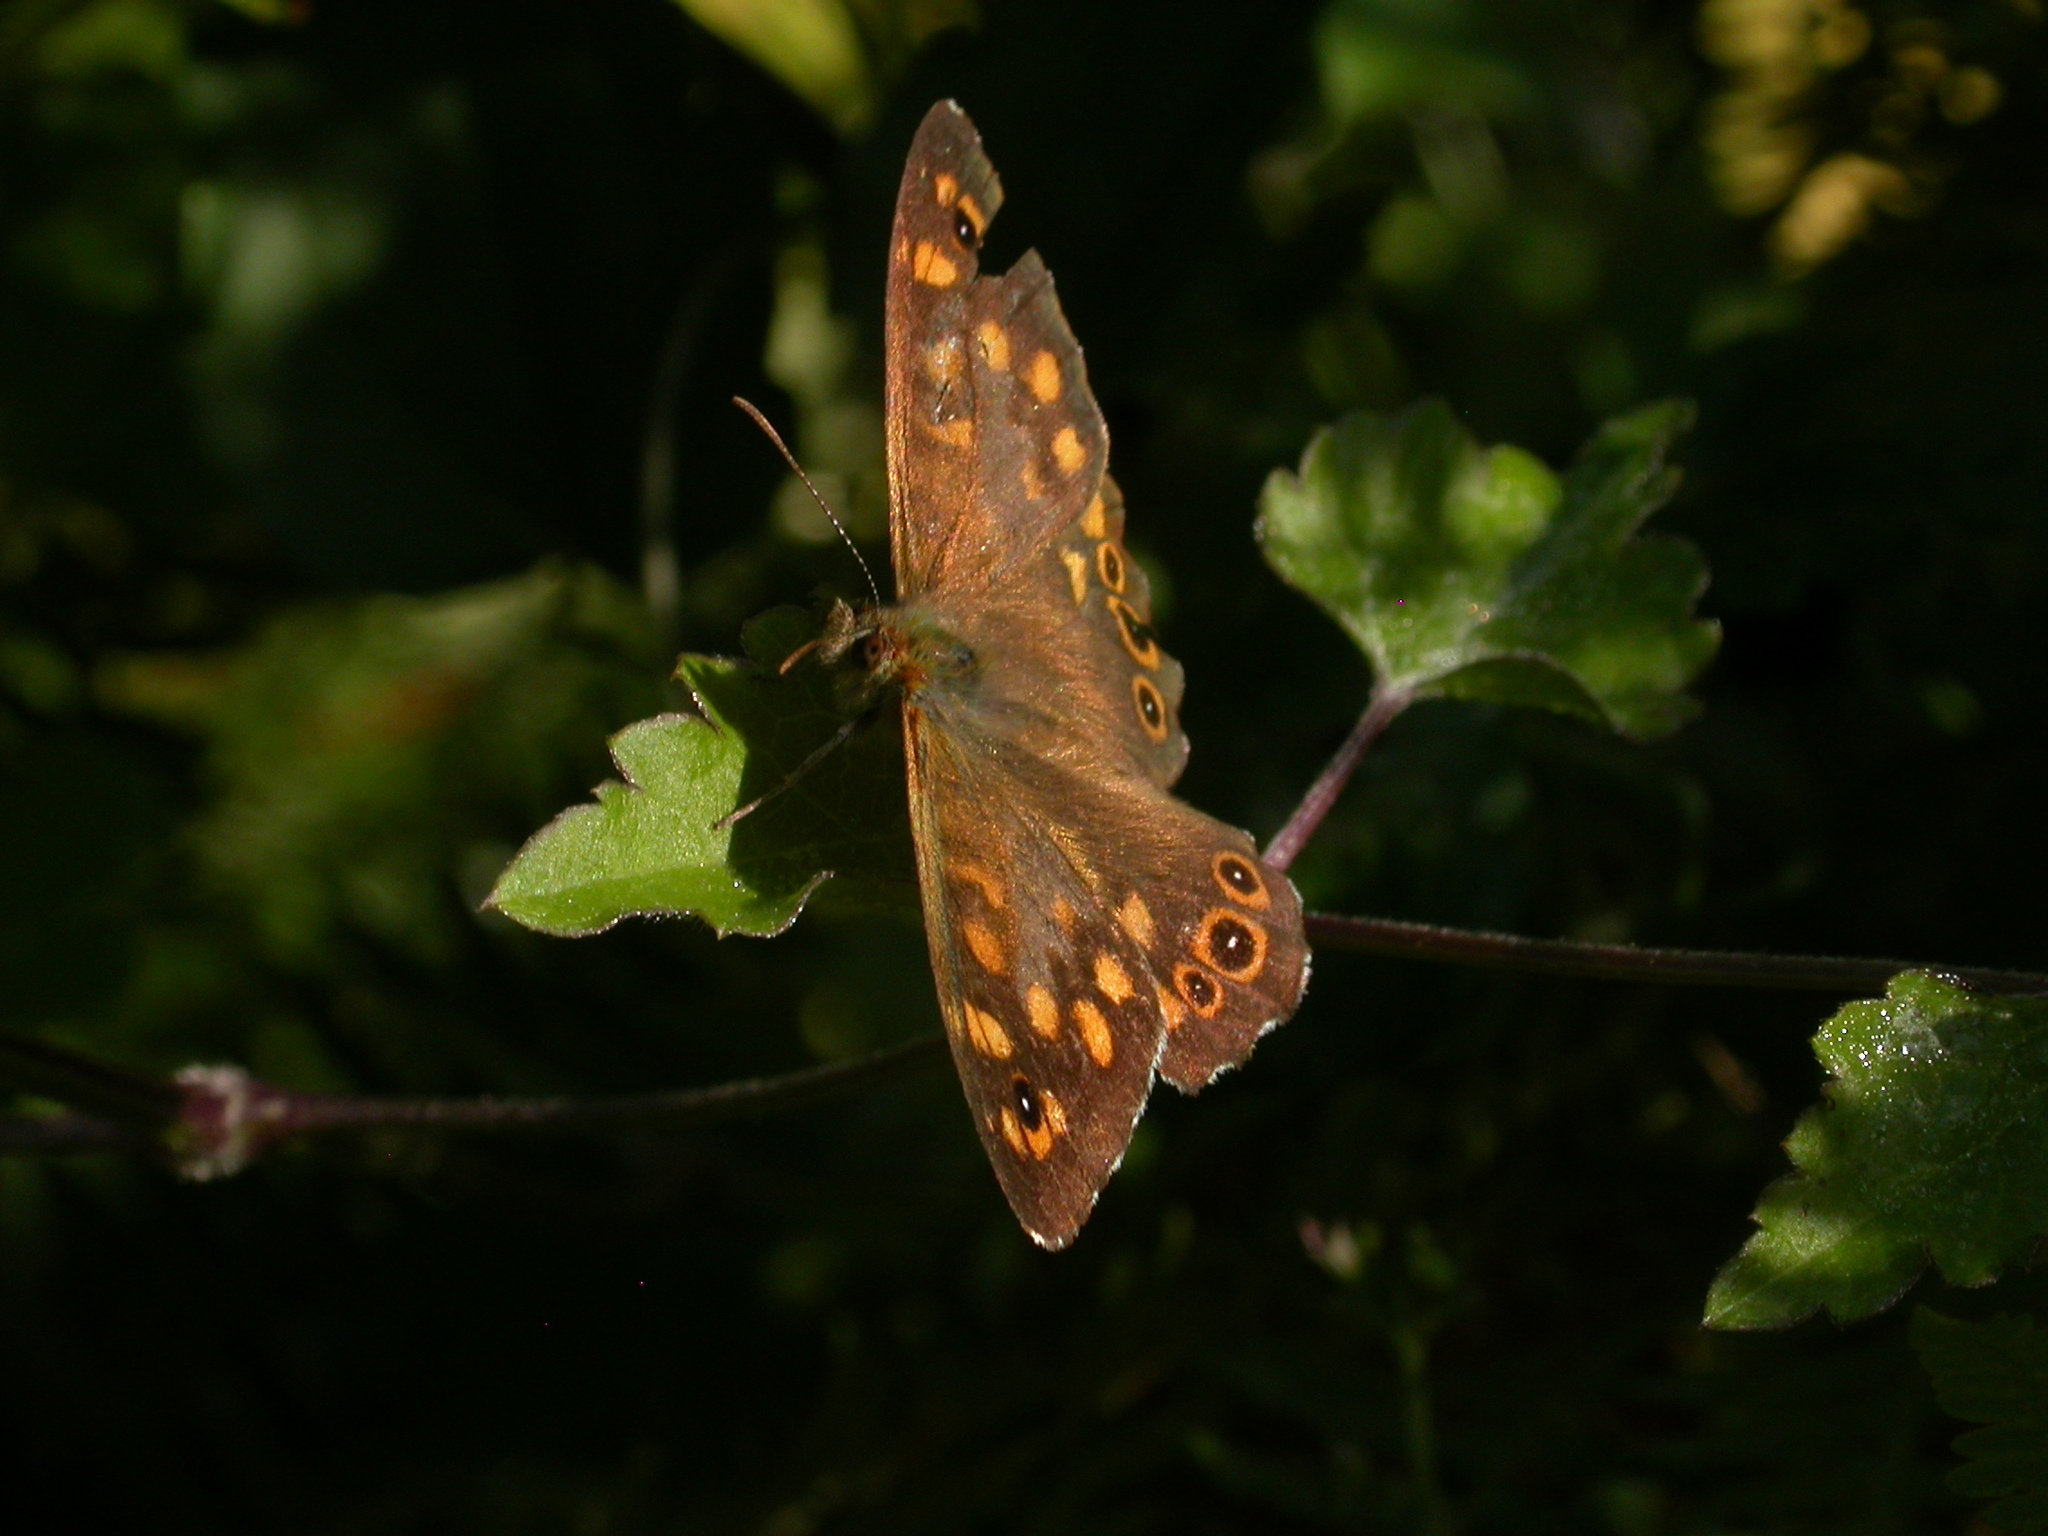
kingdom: Animalia
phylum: Arthropoda
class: Insecta
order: Lepidoptera
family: Nymphalidae
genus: Pararge
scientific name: Pararge aegeria
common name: Speckled wood
